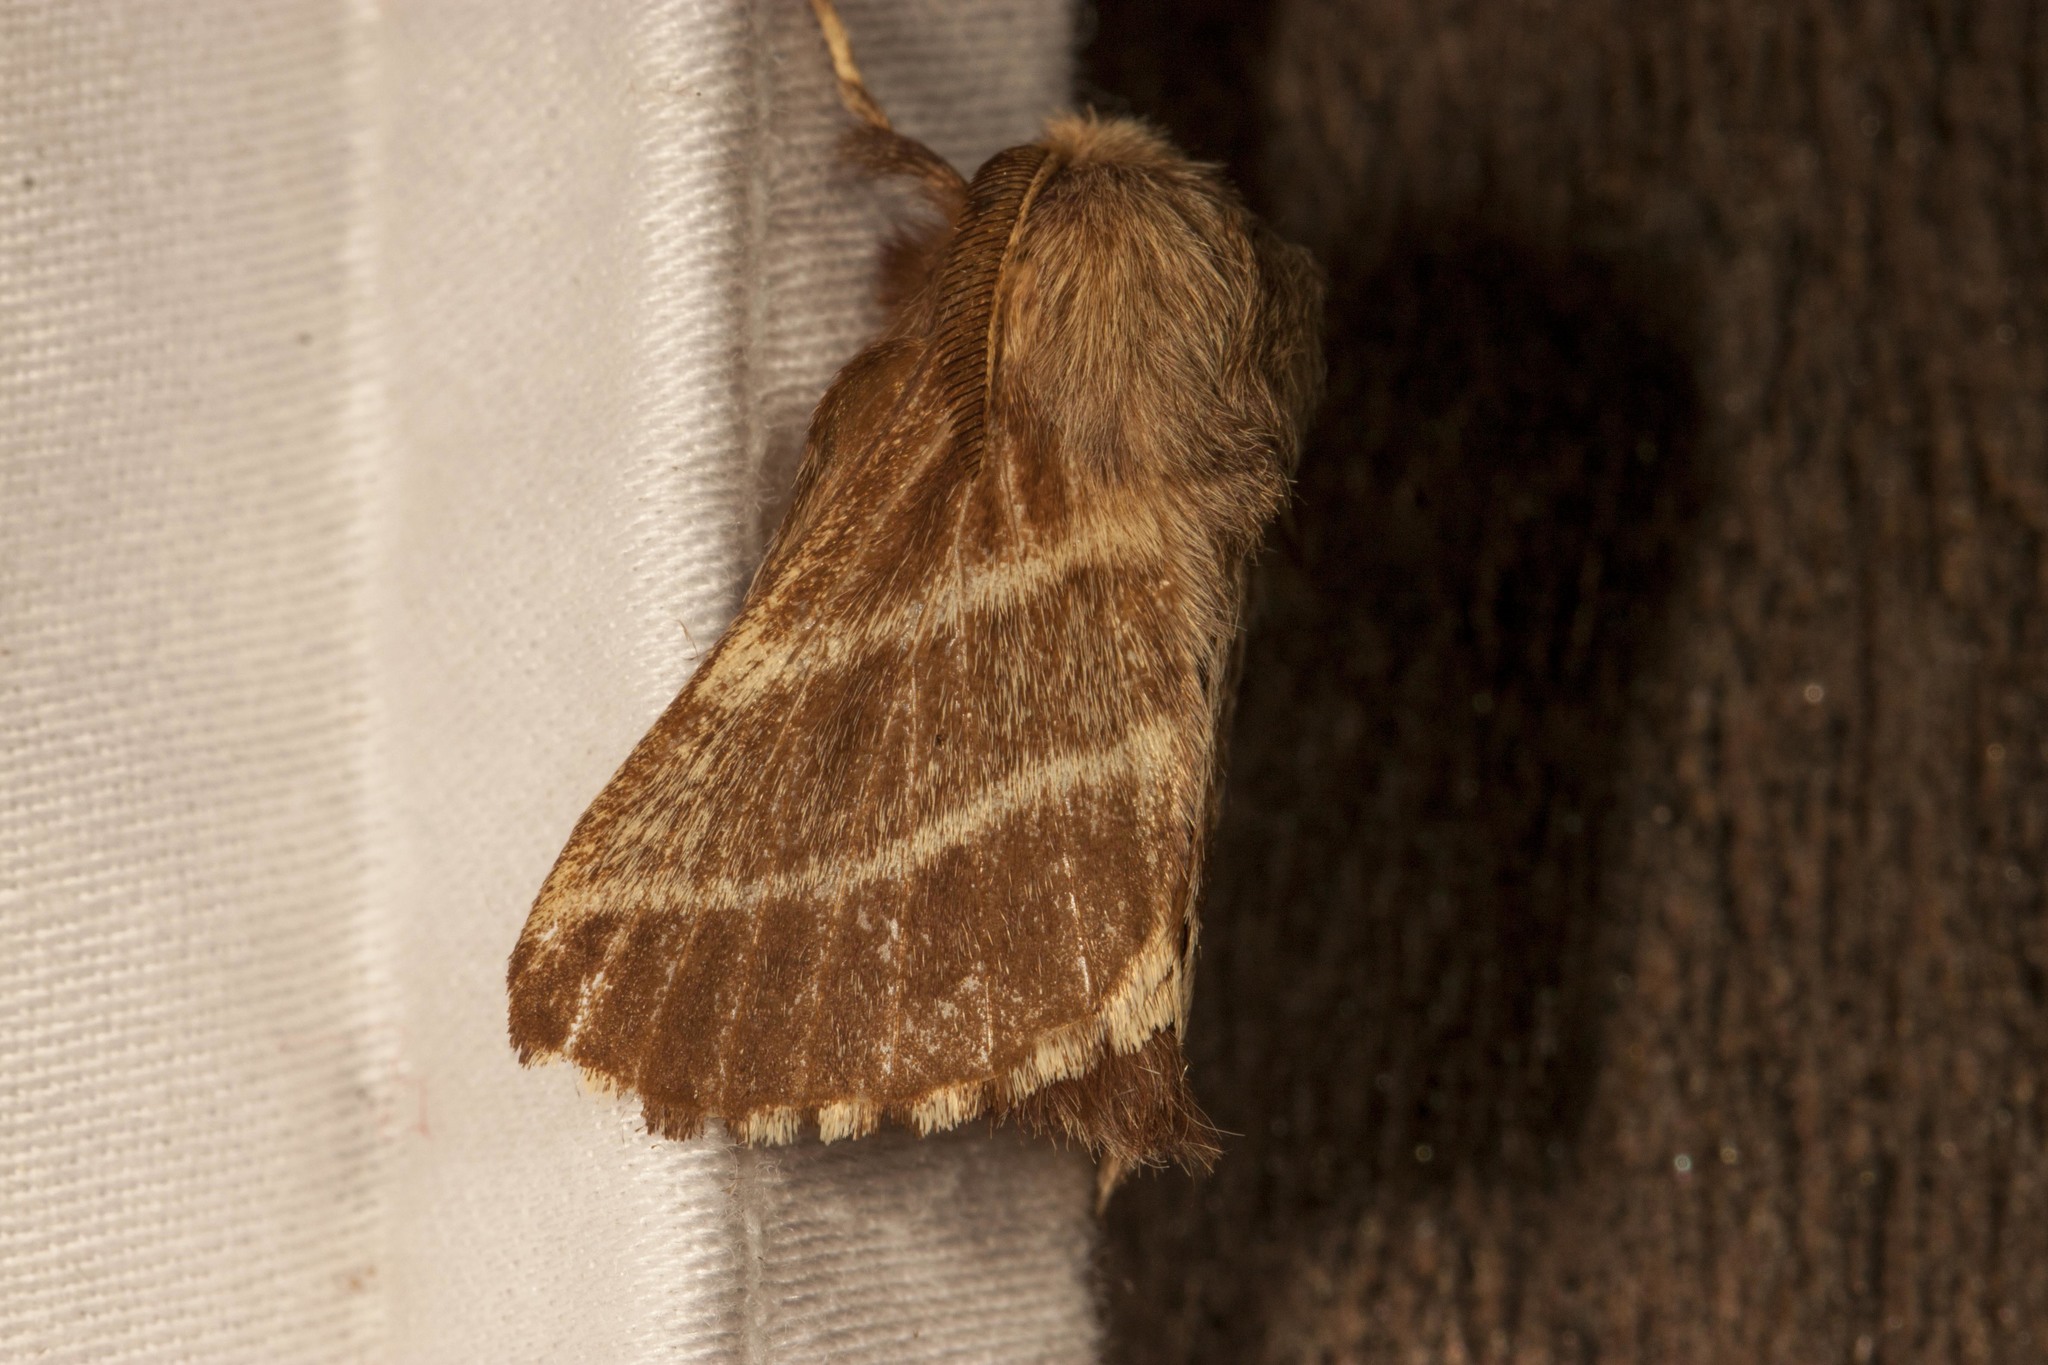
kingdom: Animalia
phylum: Arthropoda
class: Insecta
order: Lepidoptera
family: Lasiocampidae
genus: Malacosoma
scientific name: Malacosoma americana
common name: Eastern tent caterpillar moth
